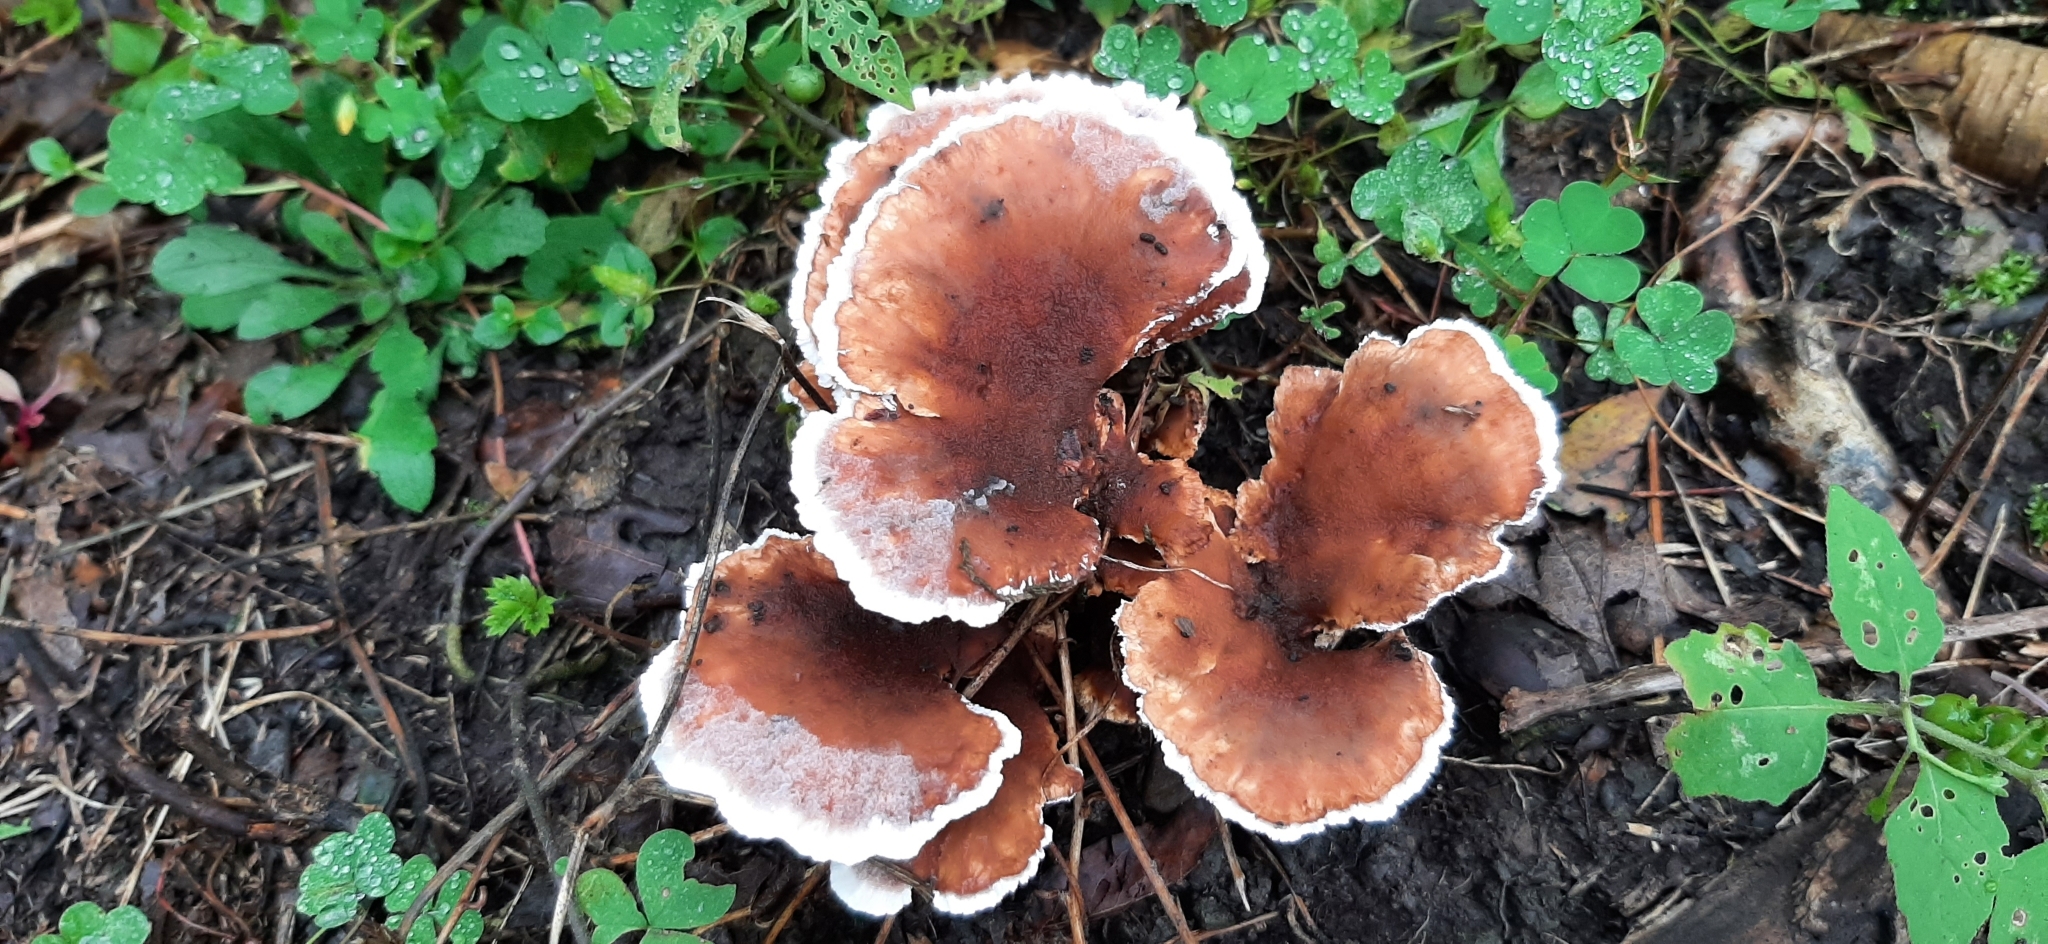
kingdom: Fungi
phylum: Basidiomycota
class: Agaricomycetes
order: Thelephorales
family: Bankeraceae
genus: Hydnellum
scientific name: Hydnellum concrescens
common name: Zoned tooth
